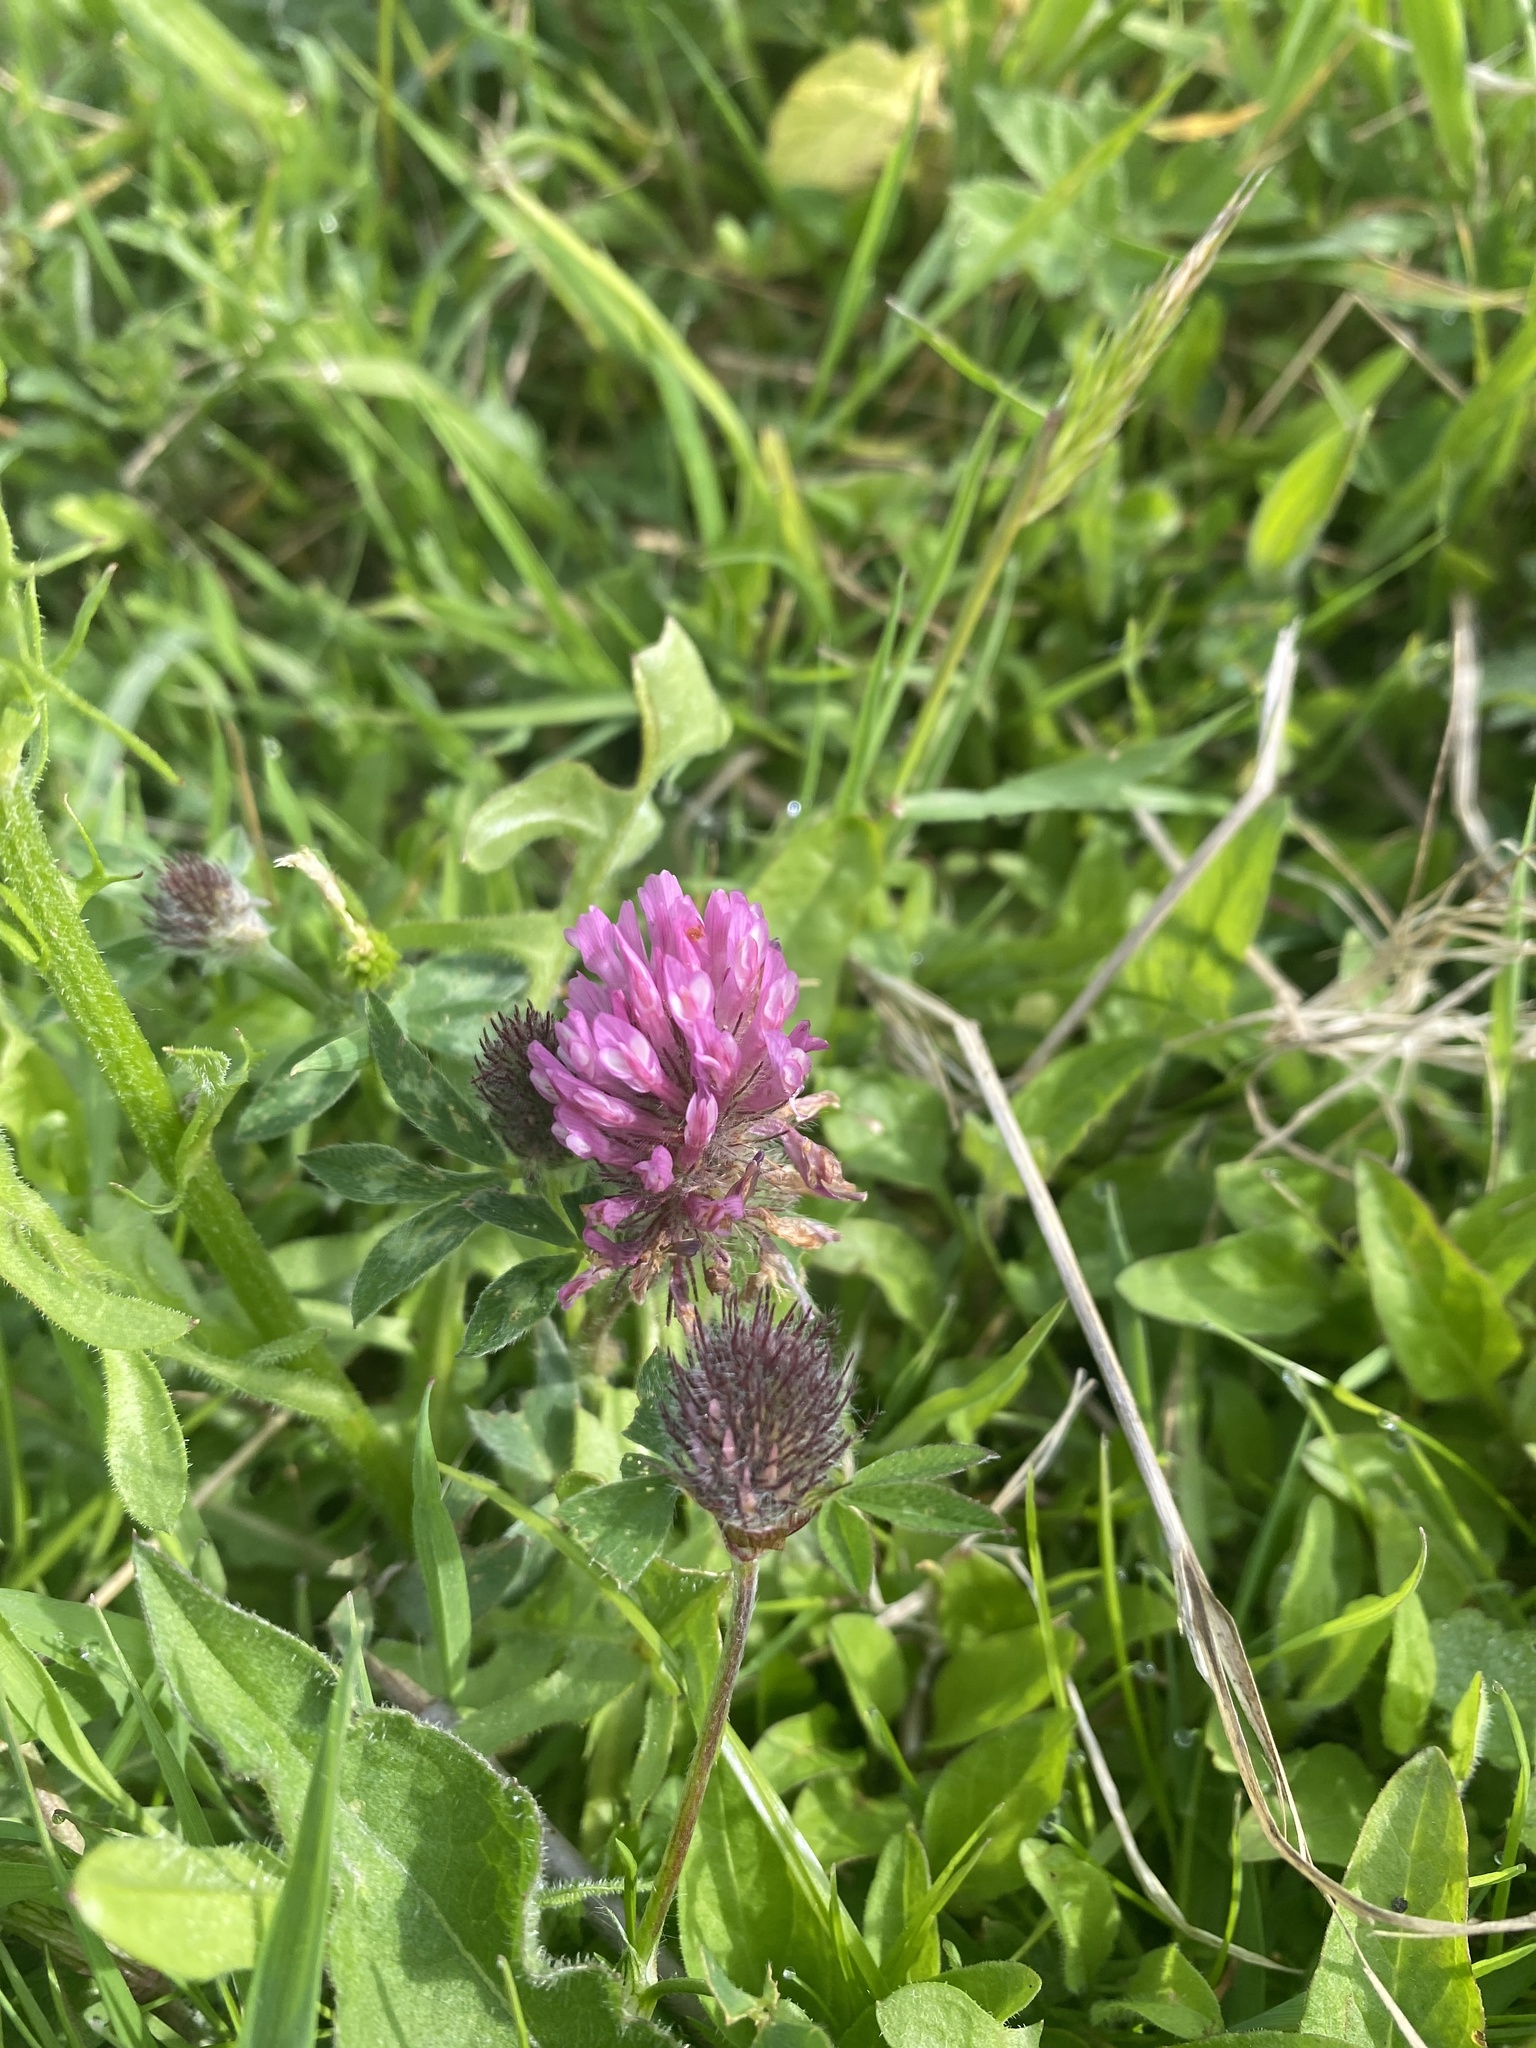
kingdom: Plantae
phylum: Tracheophyta
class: Magnoliopsida
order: Fabales
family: Fabaceae
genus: Trifolium
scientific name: Trifolium pratense
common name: Red clover
